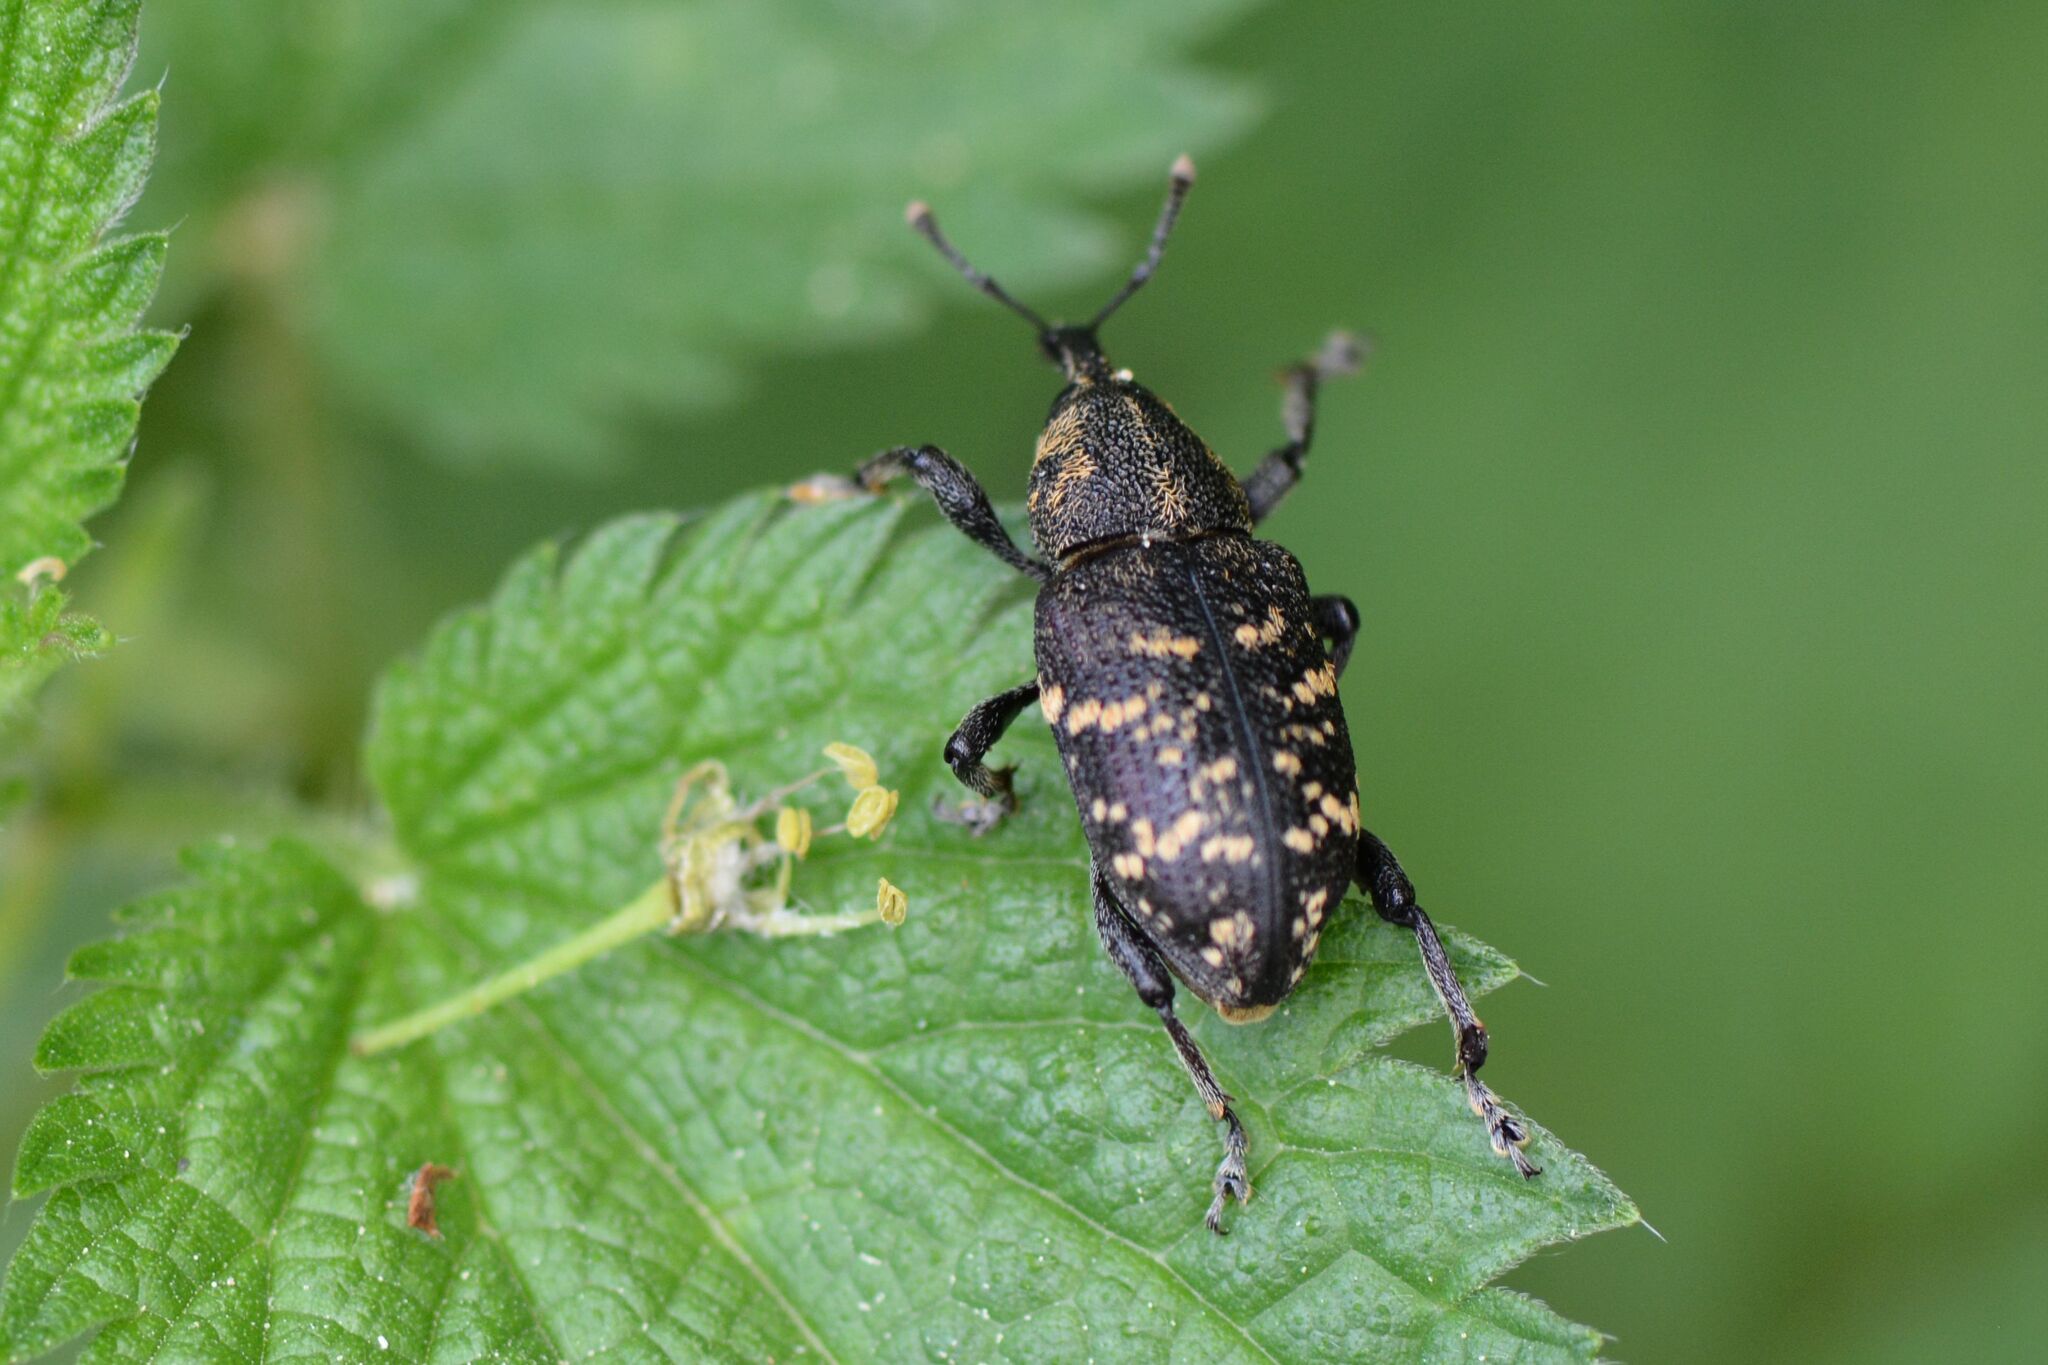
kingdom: Animalia
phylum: Arthropoda
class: Insecta
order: Coleoptera
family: Curculionidae
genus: Hylobius
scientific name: Hylobius abietis
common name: Large pine weevil
